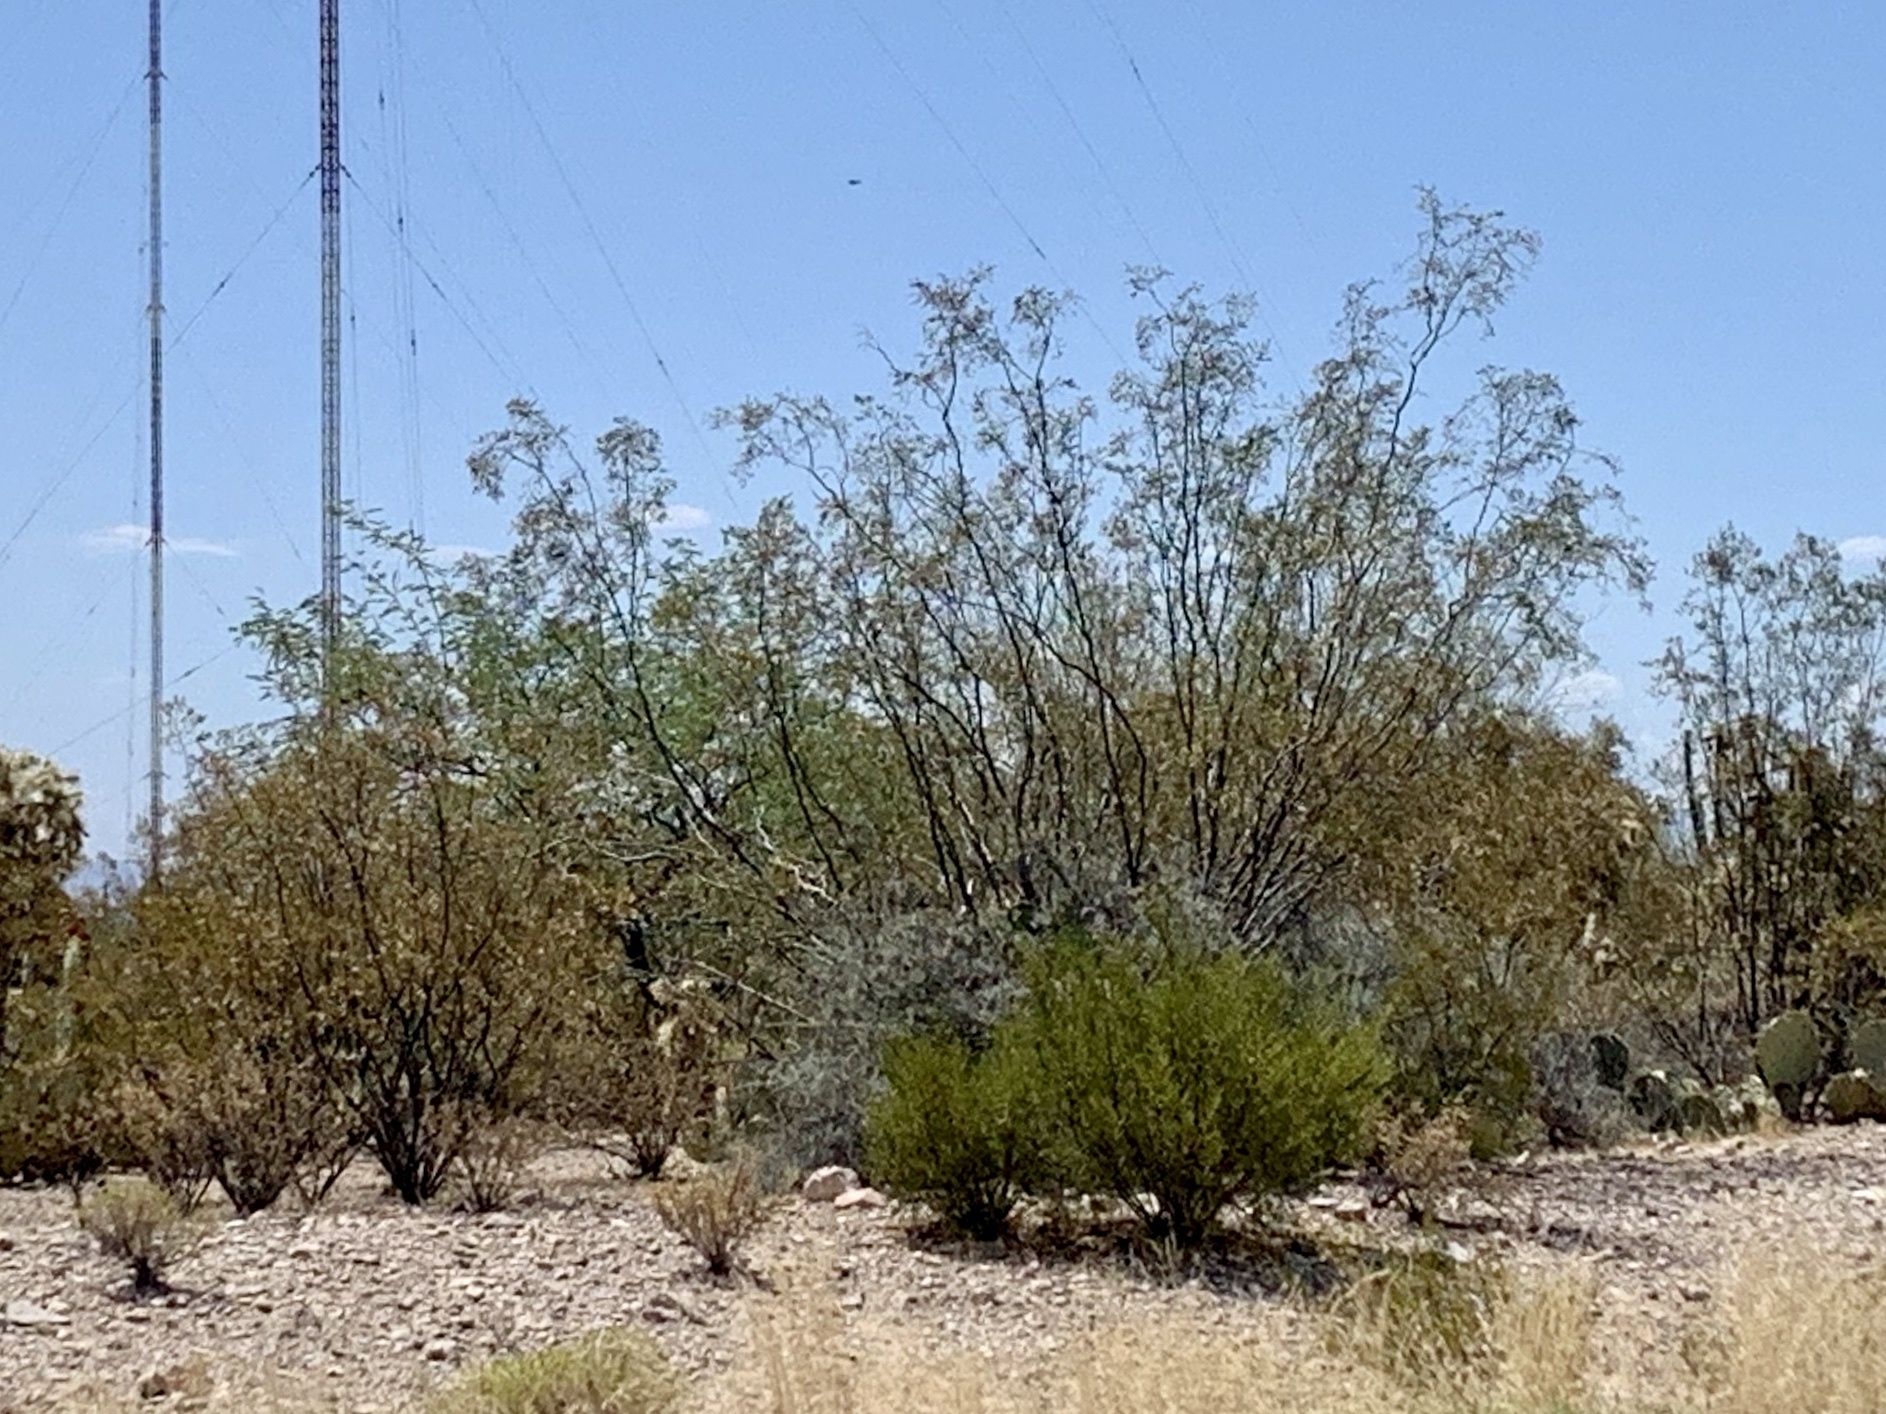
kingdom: Plantae
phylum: Tracheophyta
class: Magnoliopsida
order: Zygophyllales
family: Zygophyllaceae
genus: Larrea
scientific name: Larrea tridentata
